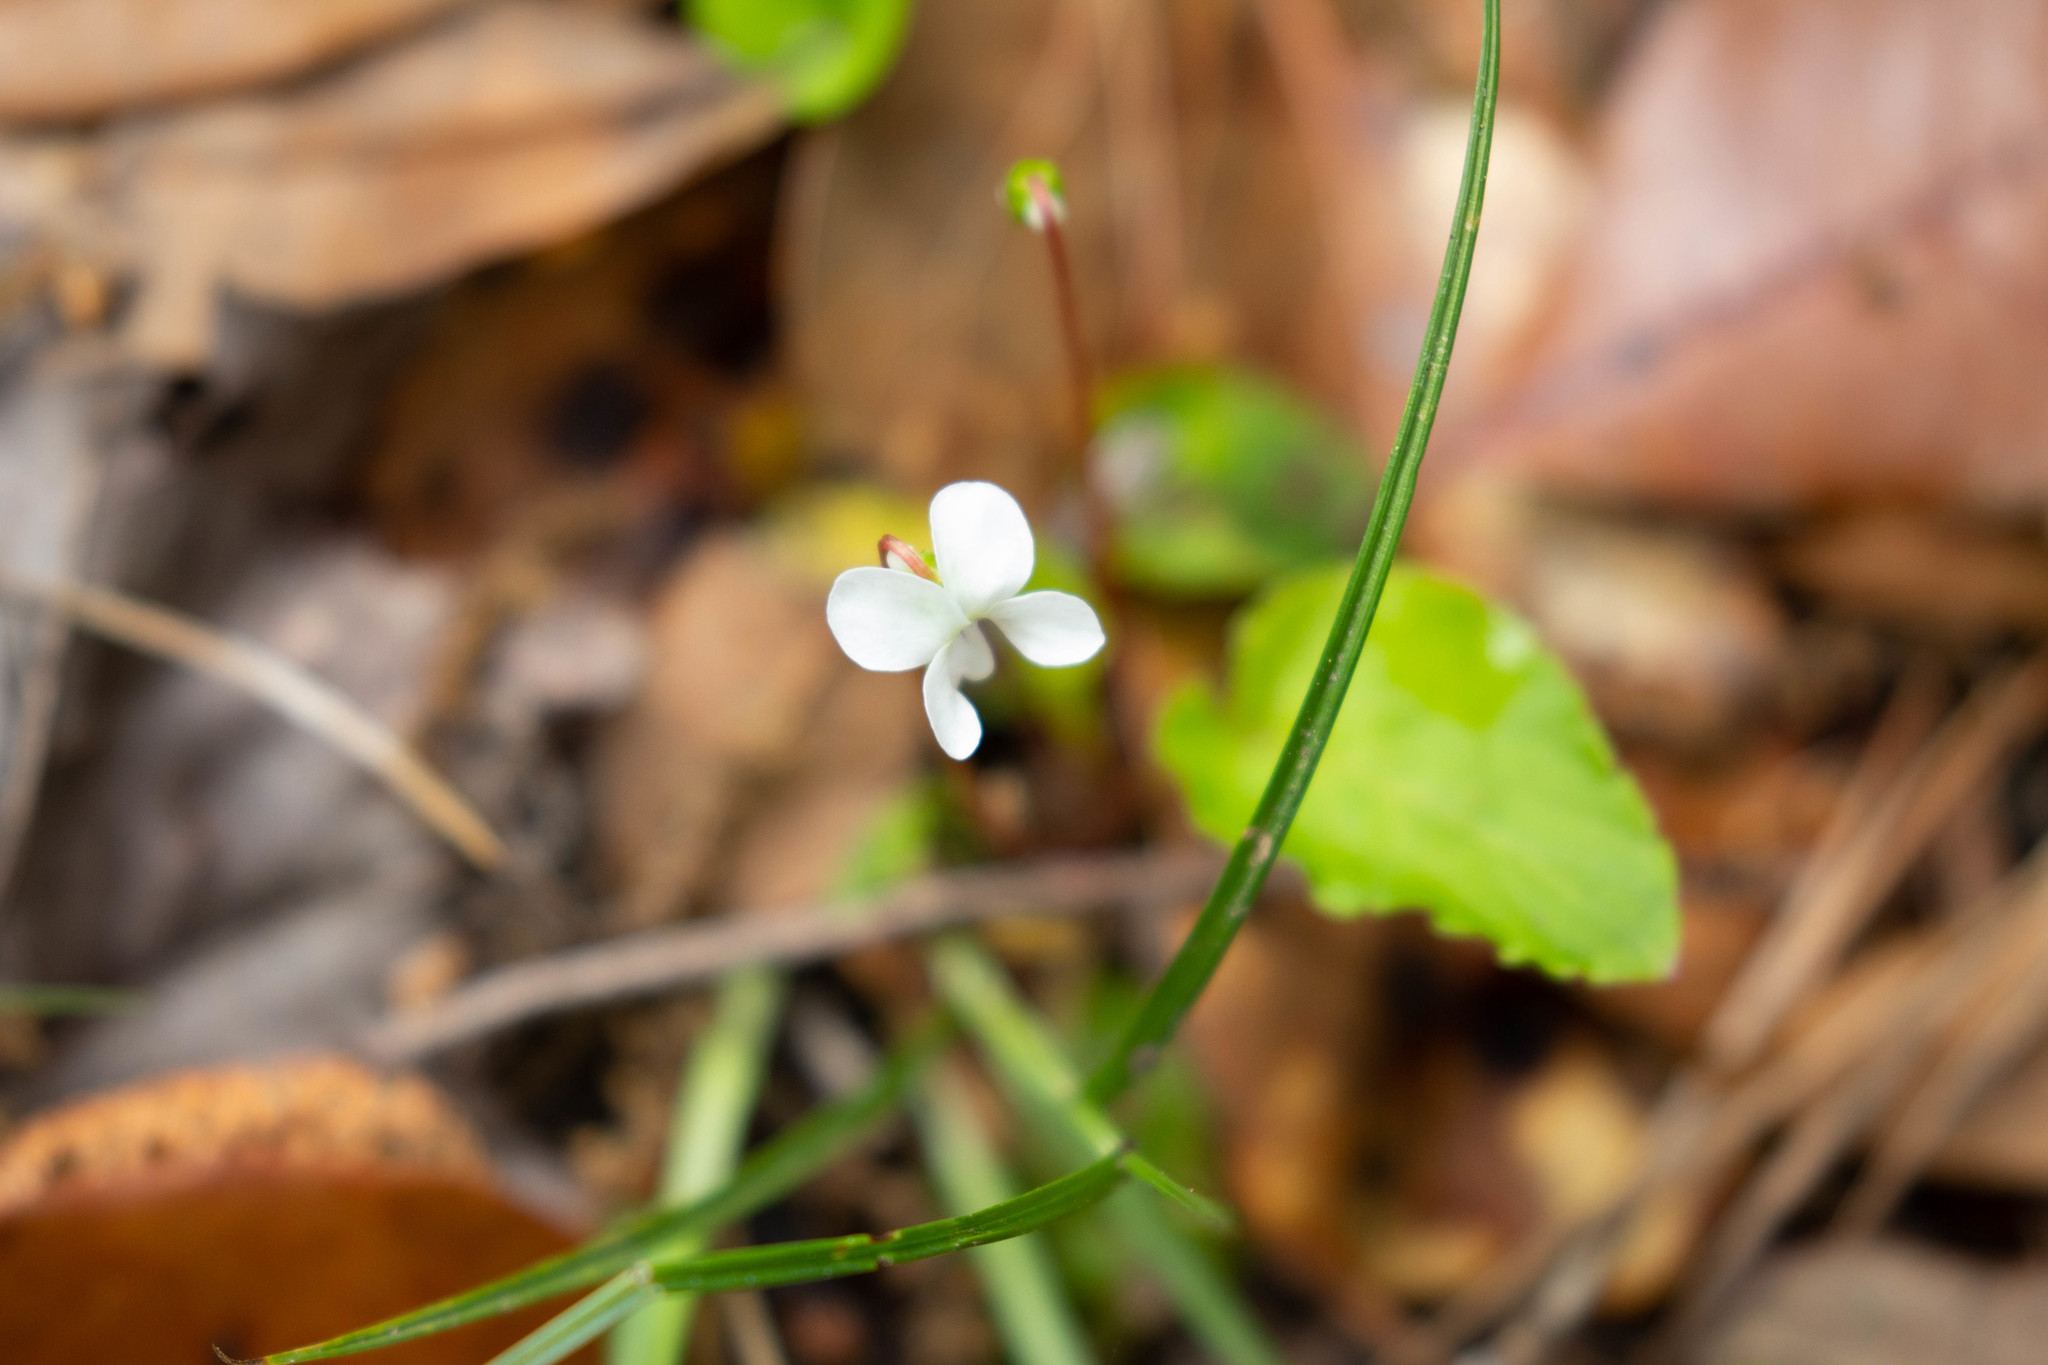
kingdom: Plantae
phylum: Tracheophyta
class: Magnoliopsida
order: Malpighiales
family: Violaceae
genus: Viola
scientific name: Viola primulifolia
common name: Primrose-leaf violet
